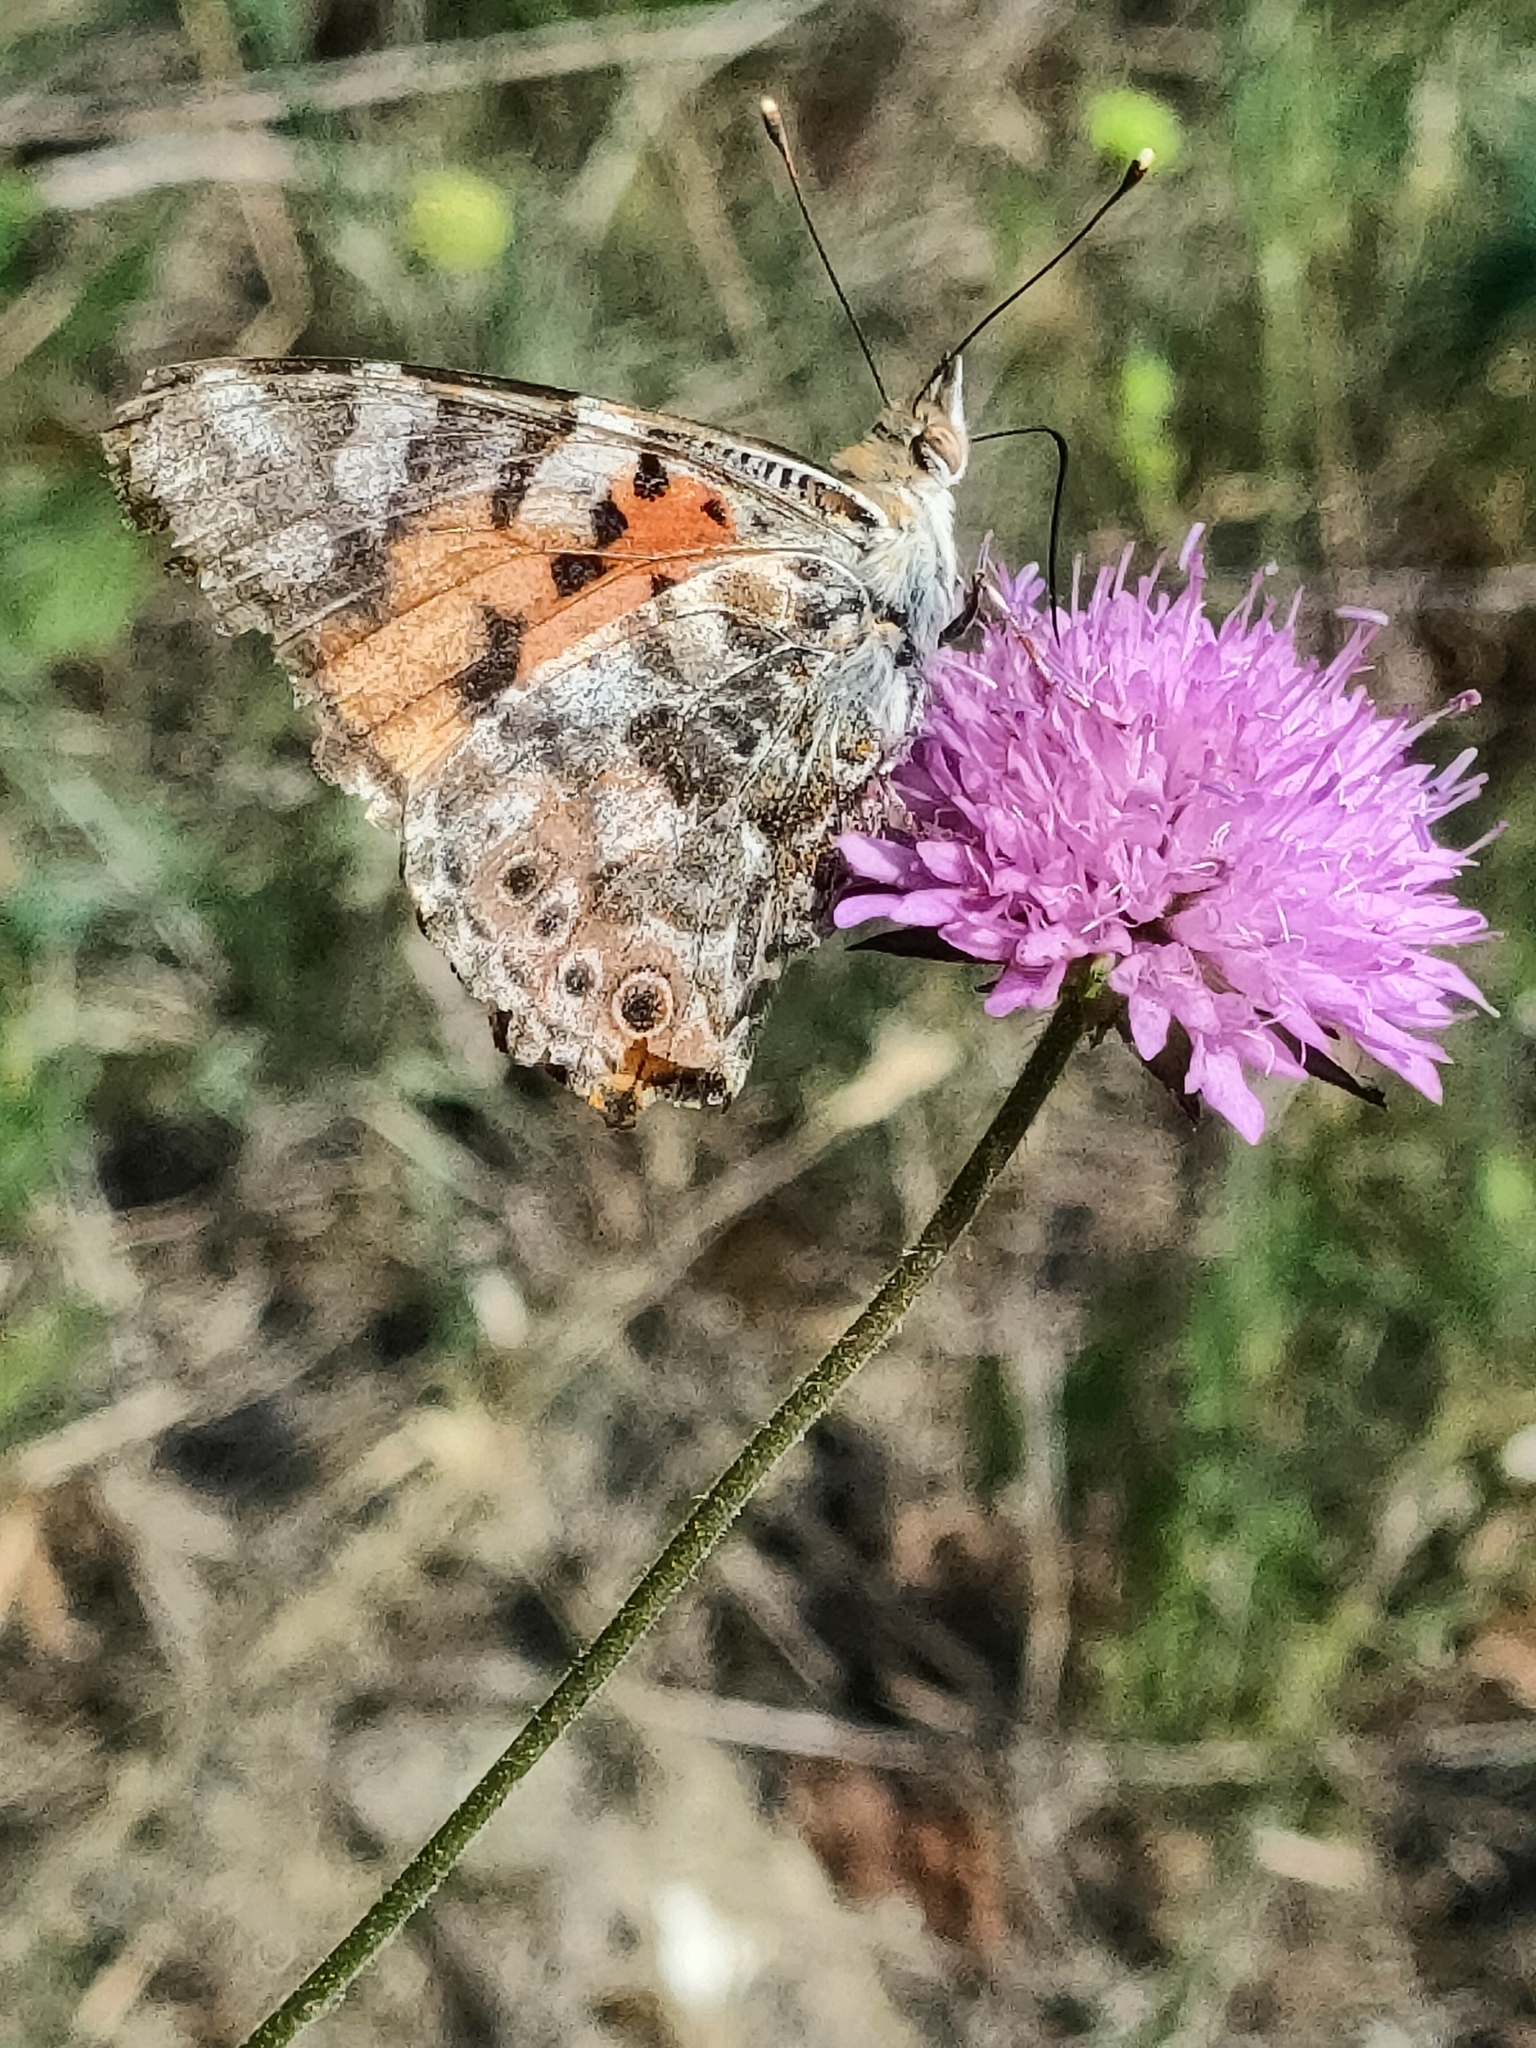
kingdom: Animalia
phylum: Arthropoda
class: Insecta
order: Lepidoptera
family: Nymphalidae
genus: Vanessa
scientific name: Vanessa cardui
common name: Painted lady
